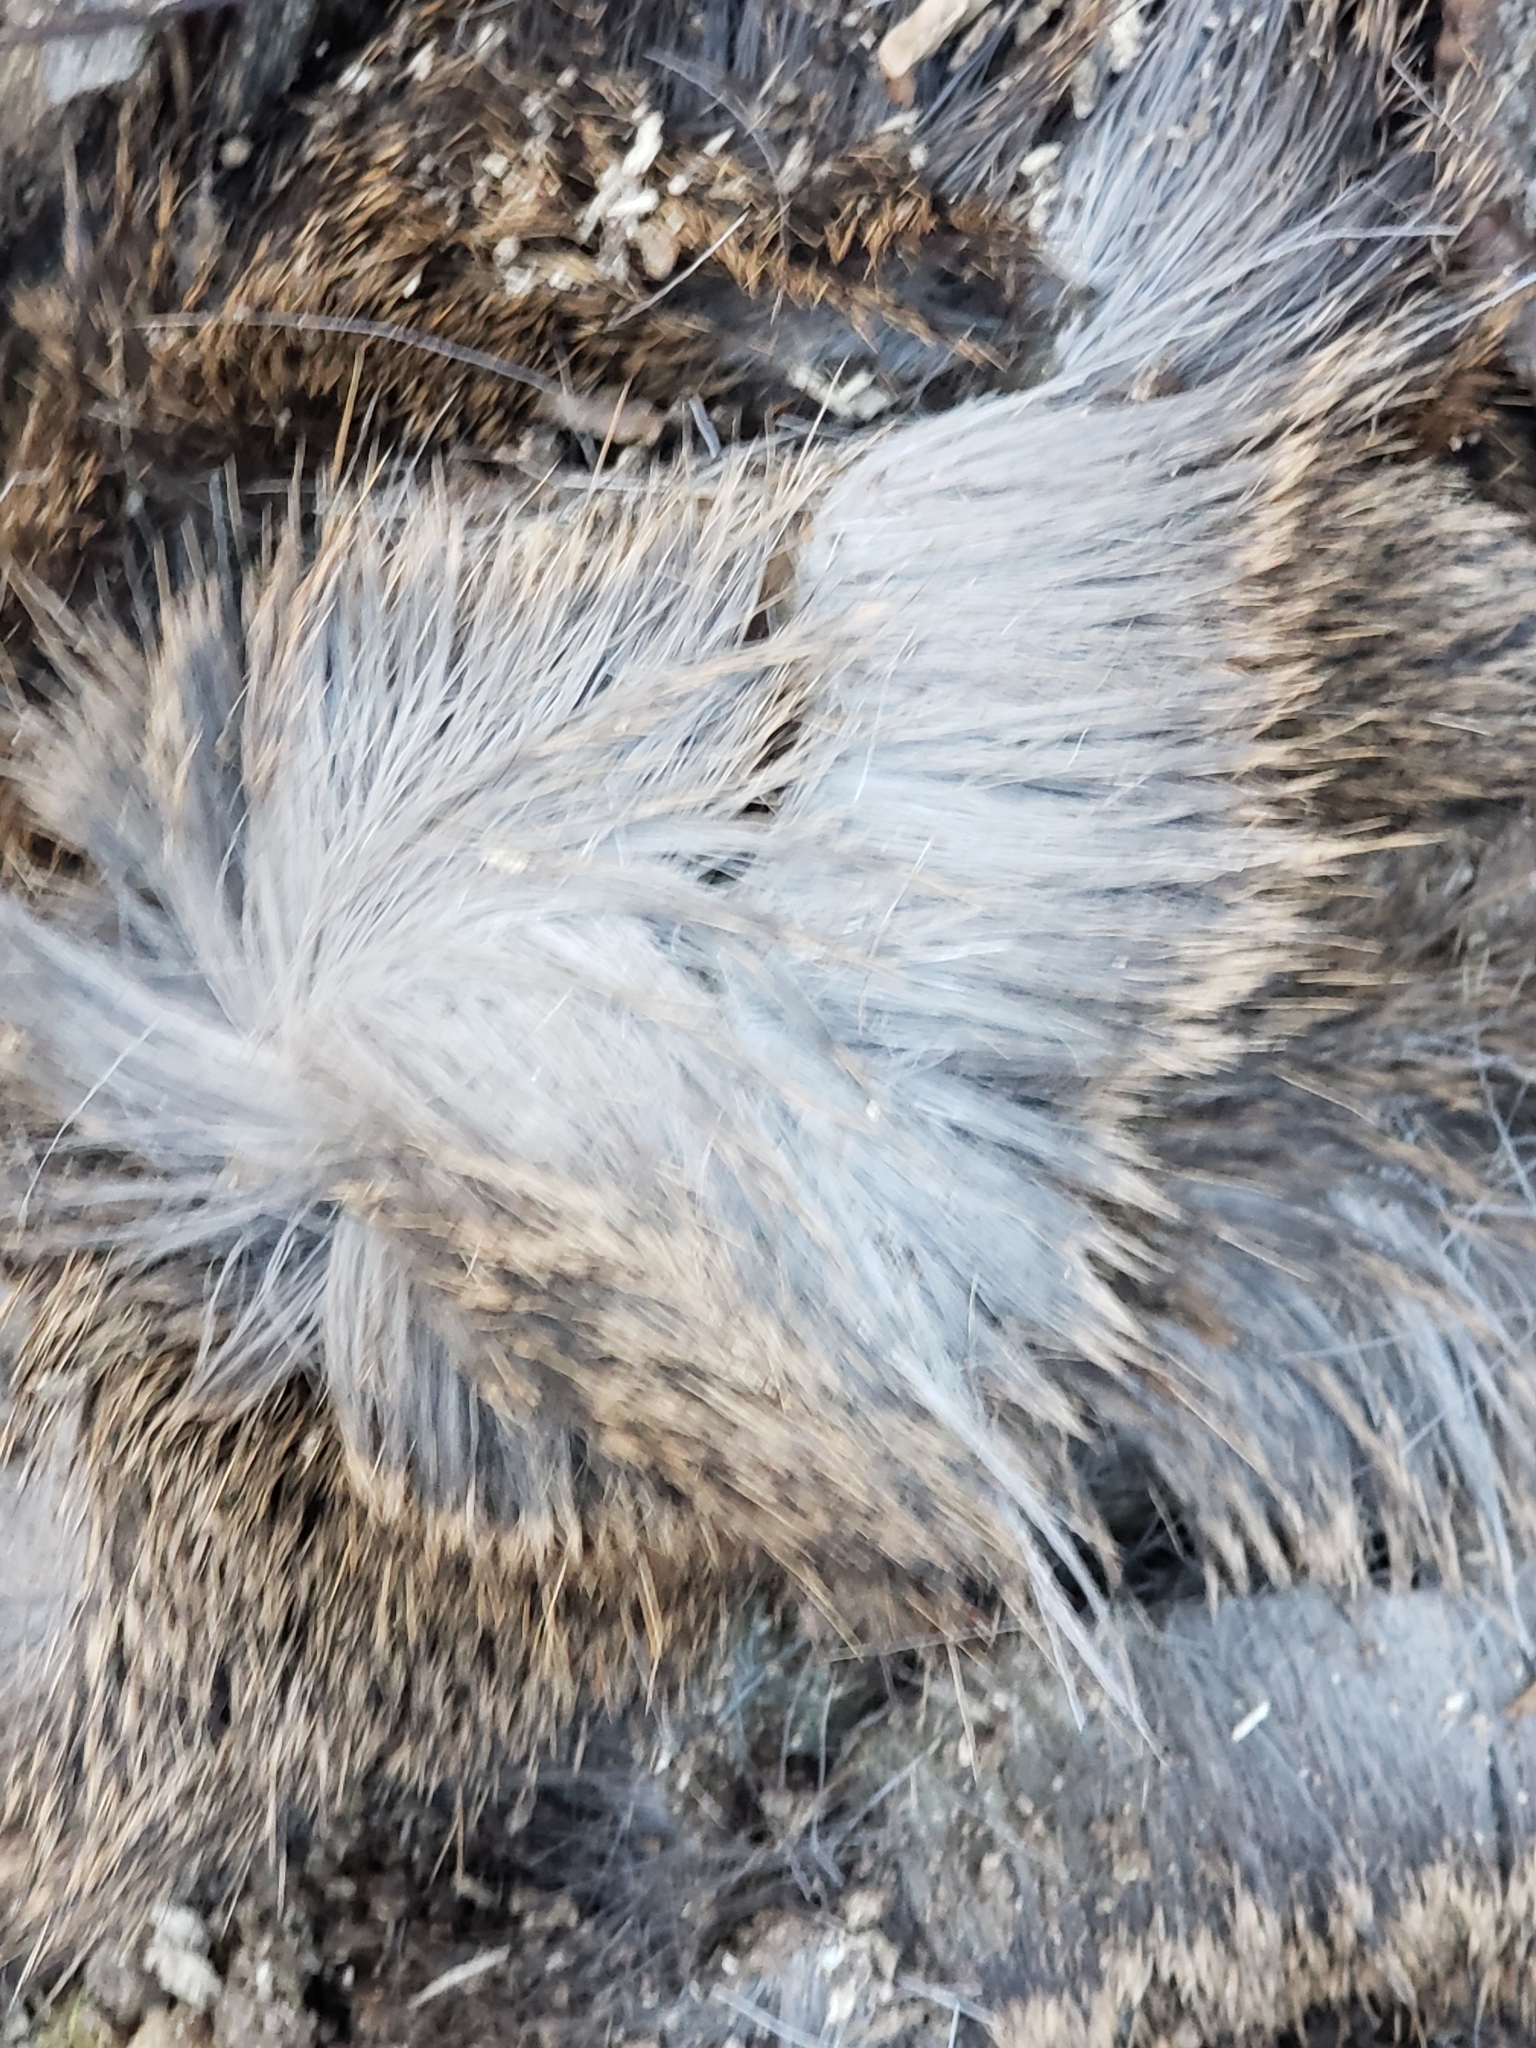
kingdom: Animalia
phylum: Chordata
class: Mammalia
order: Artiodactyla
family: Cervidae
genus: Odocoileus
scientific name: Odocoileus virginianus
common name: White-tailed deer
